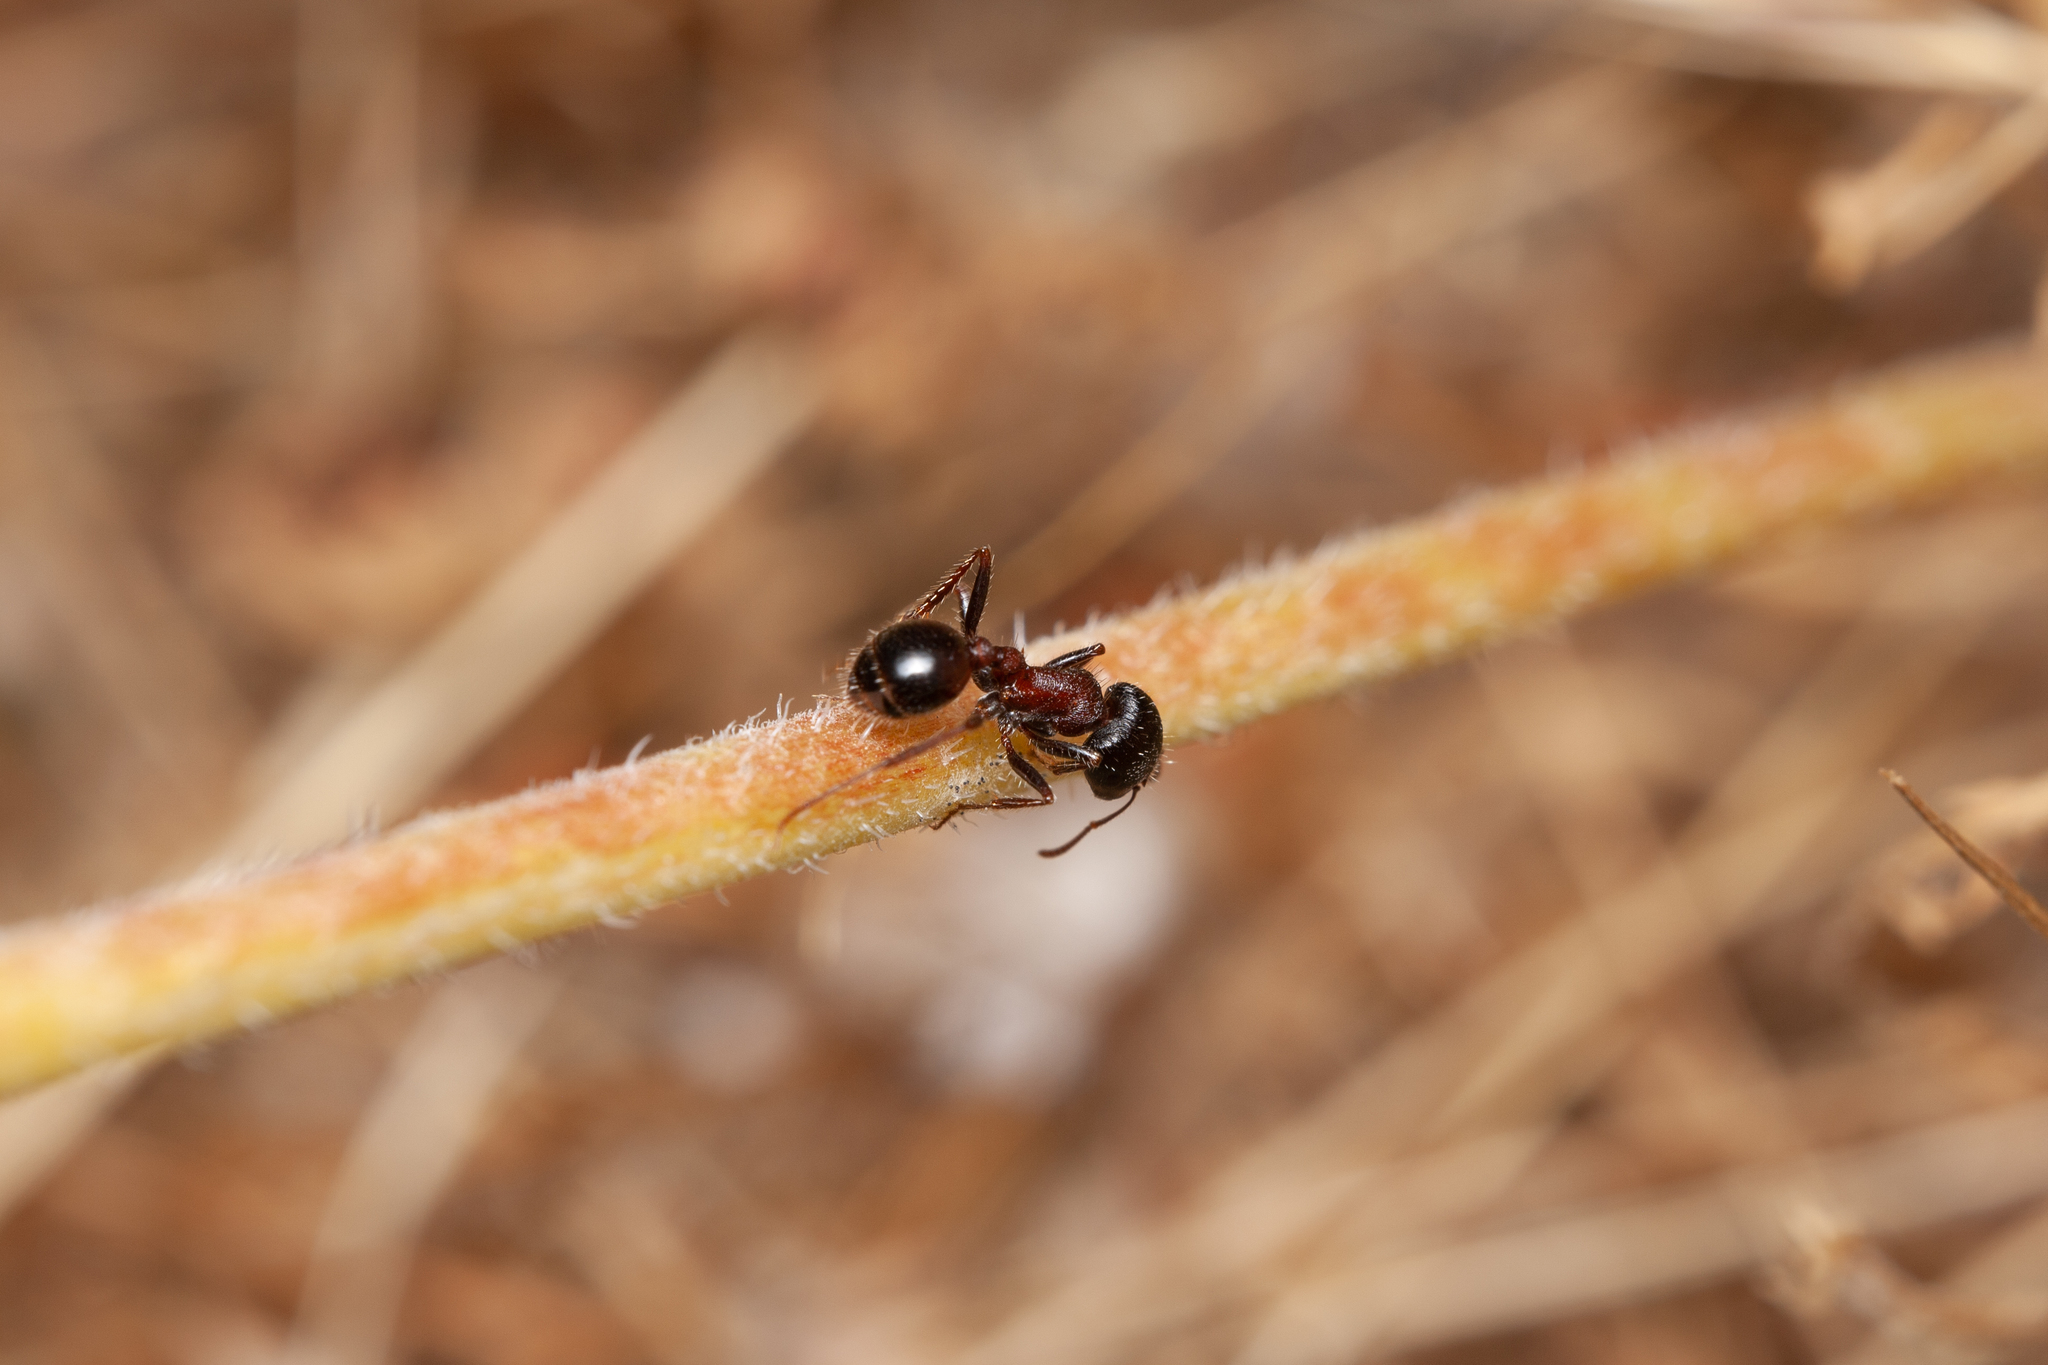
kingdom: Animalia
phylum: Arthropoda
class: Insecta
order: Hymenoptera
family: Formicidae
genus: Pogonomyrmex
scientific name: Pogonomyrmex rugosus
